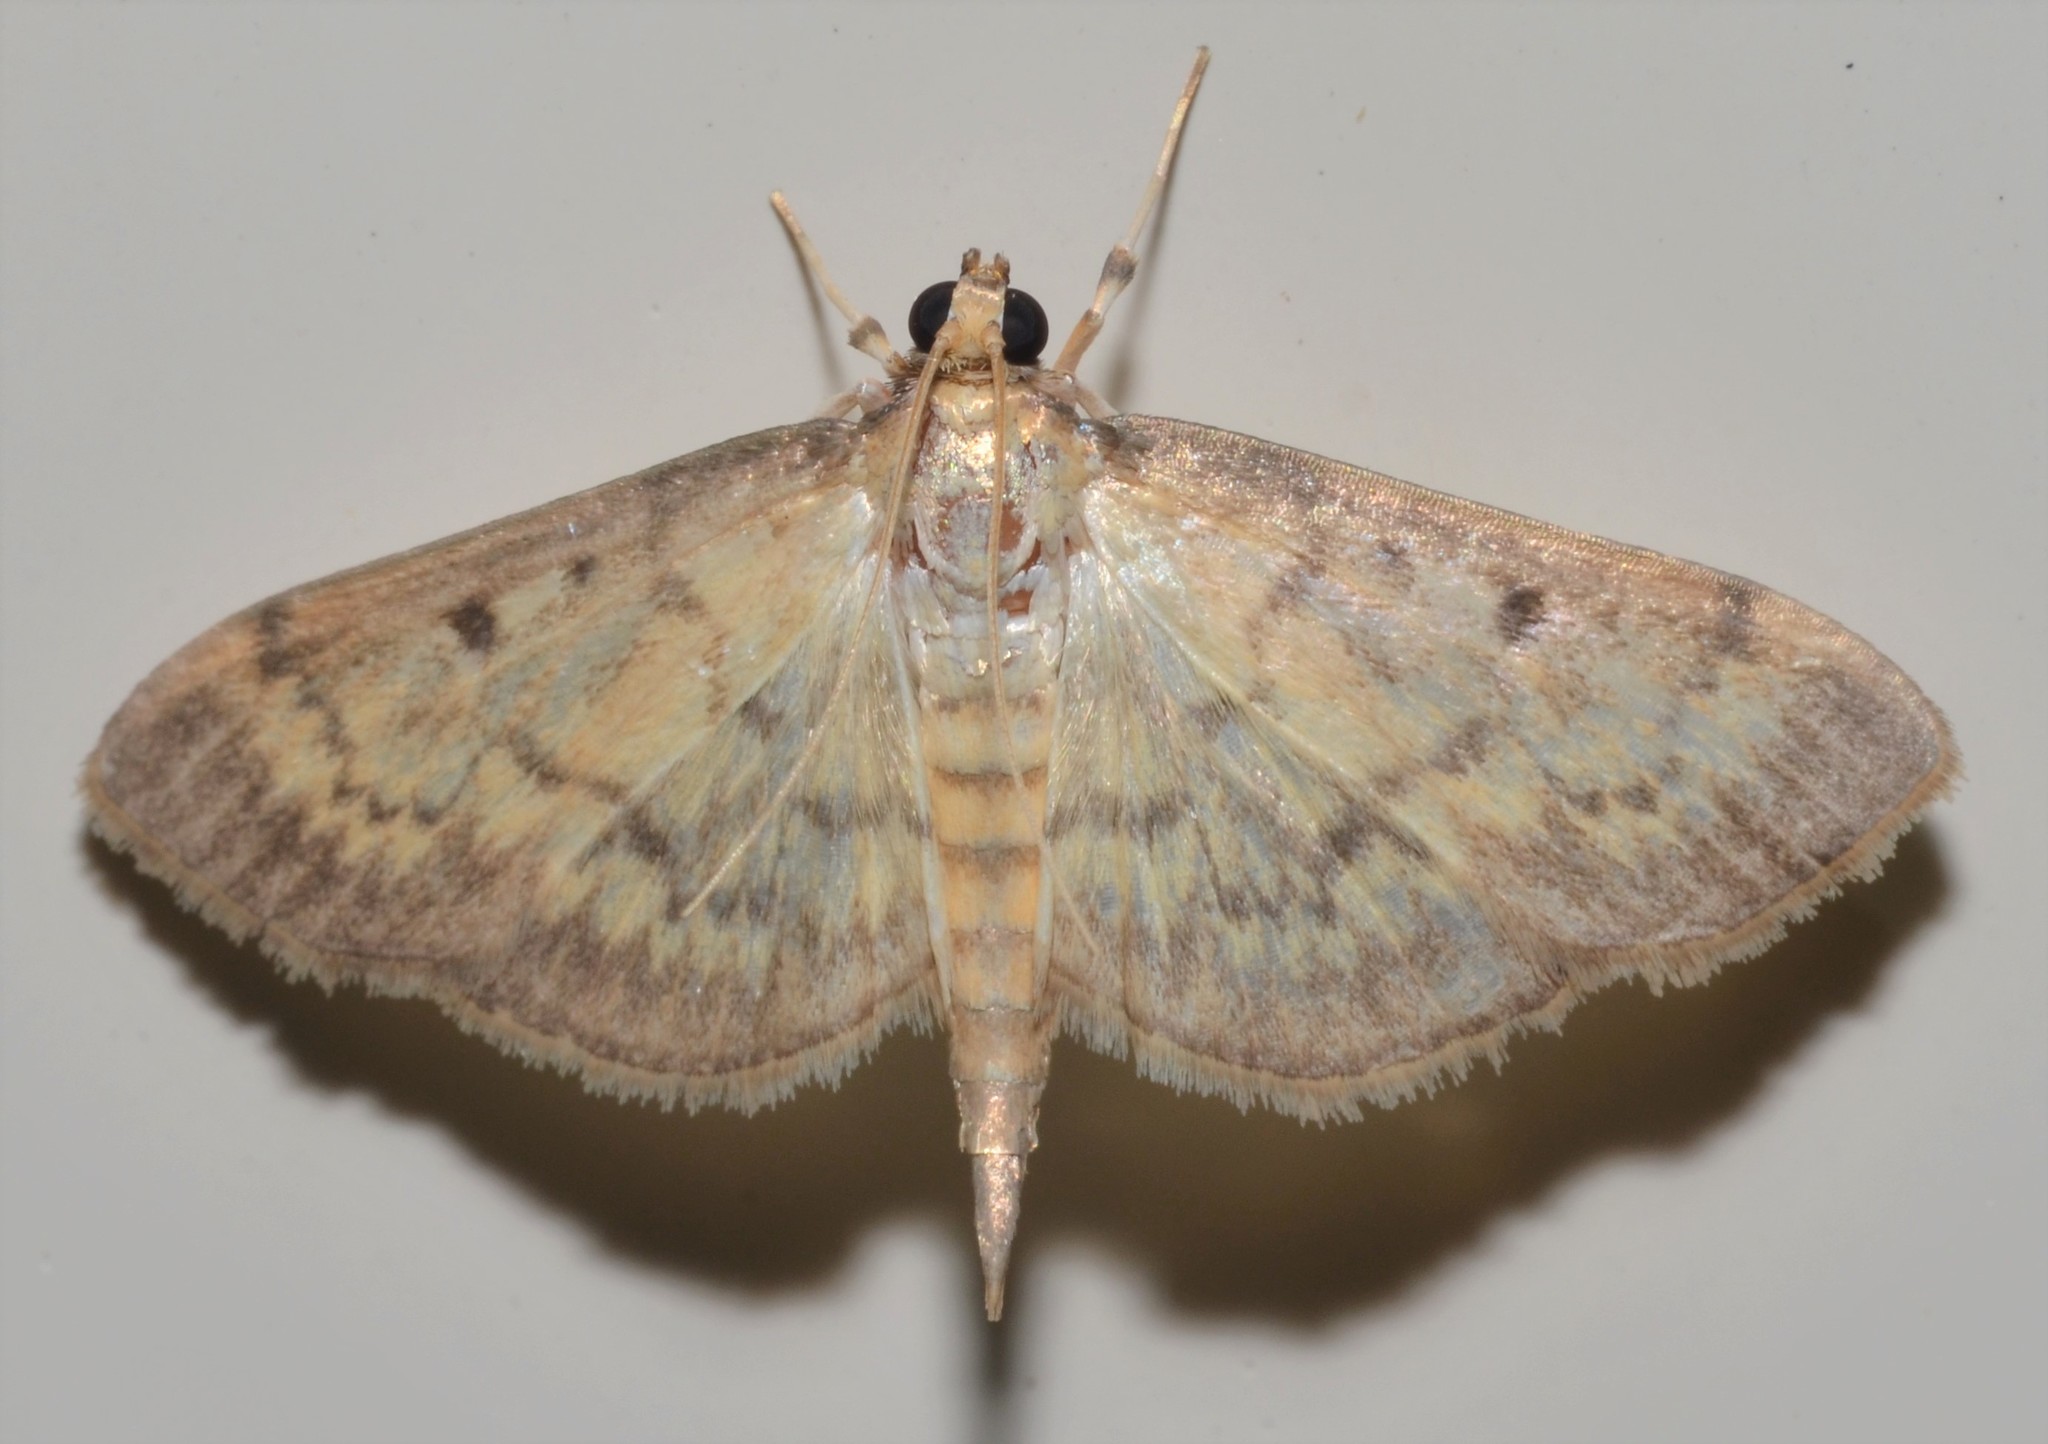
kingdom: Animalia
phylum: Arthropoda
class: Insecta
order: Lepidoptera
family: Crambidae
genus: Herpetogramma
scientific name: Herpetogramma fluctuosalis
